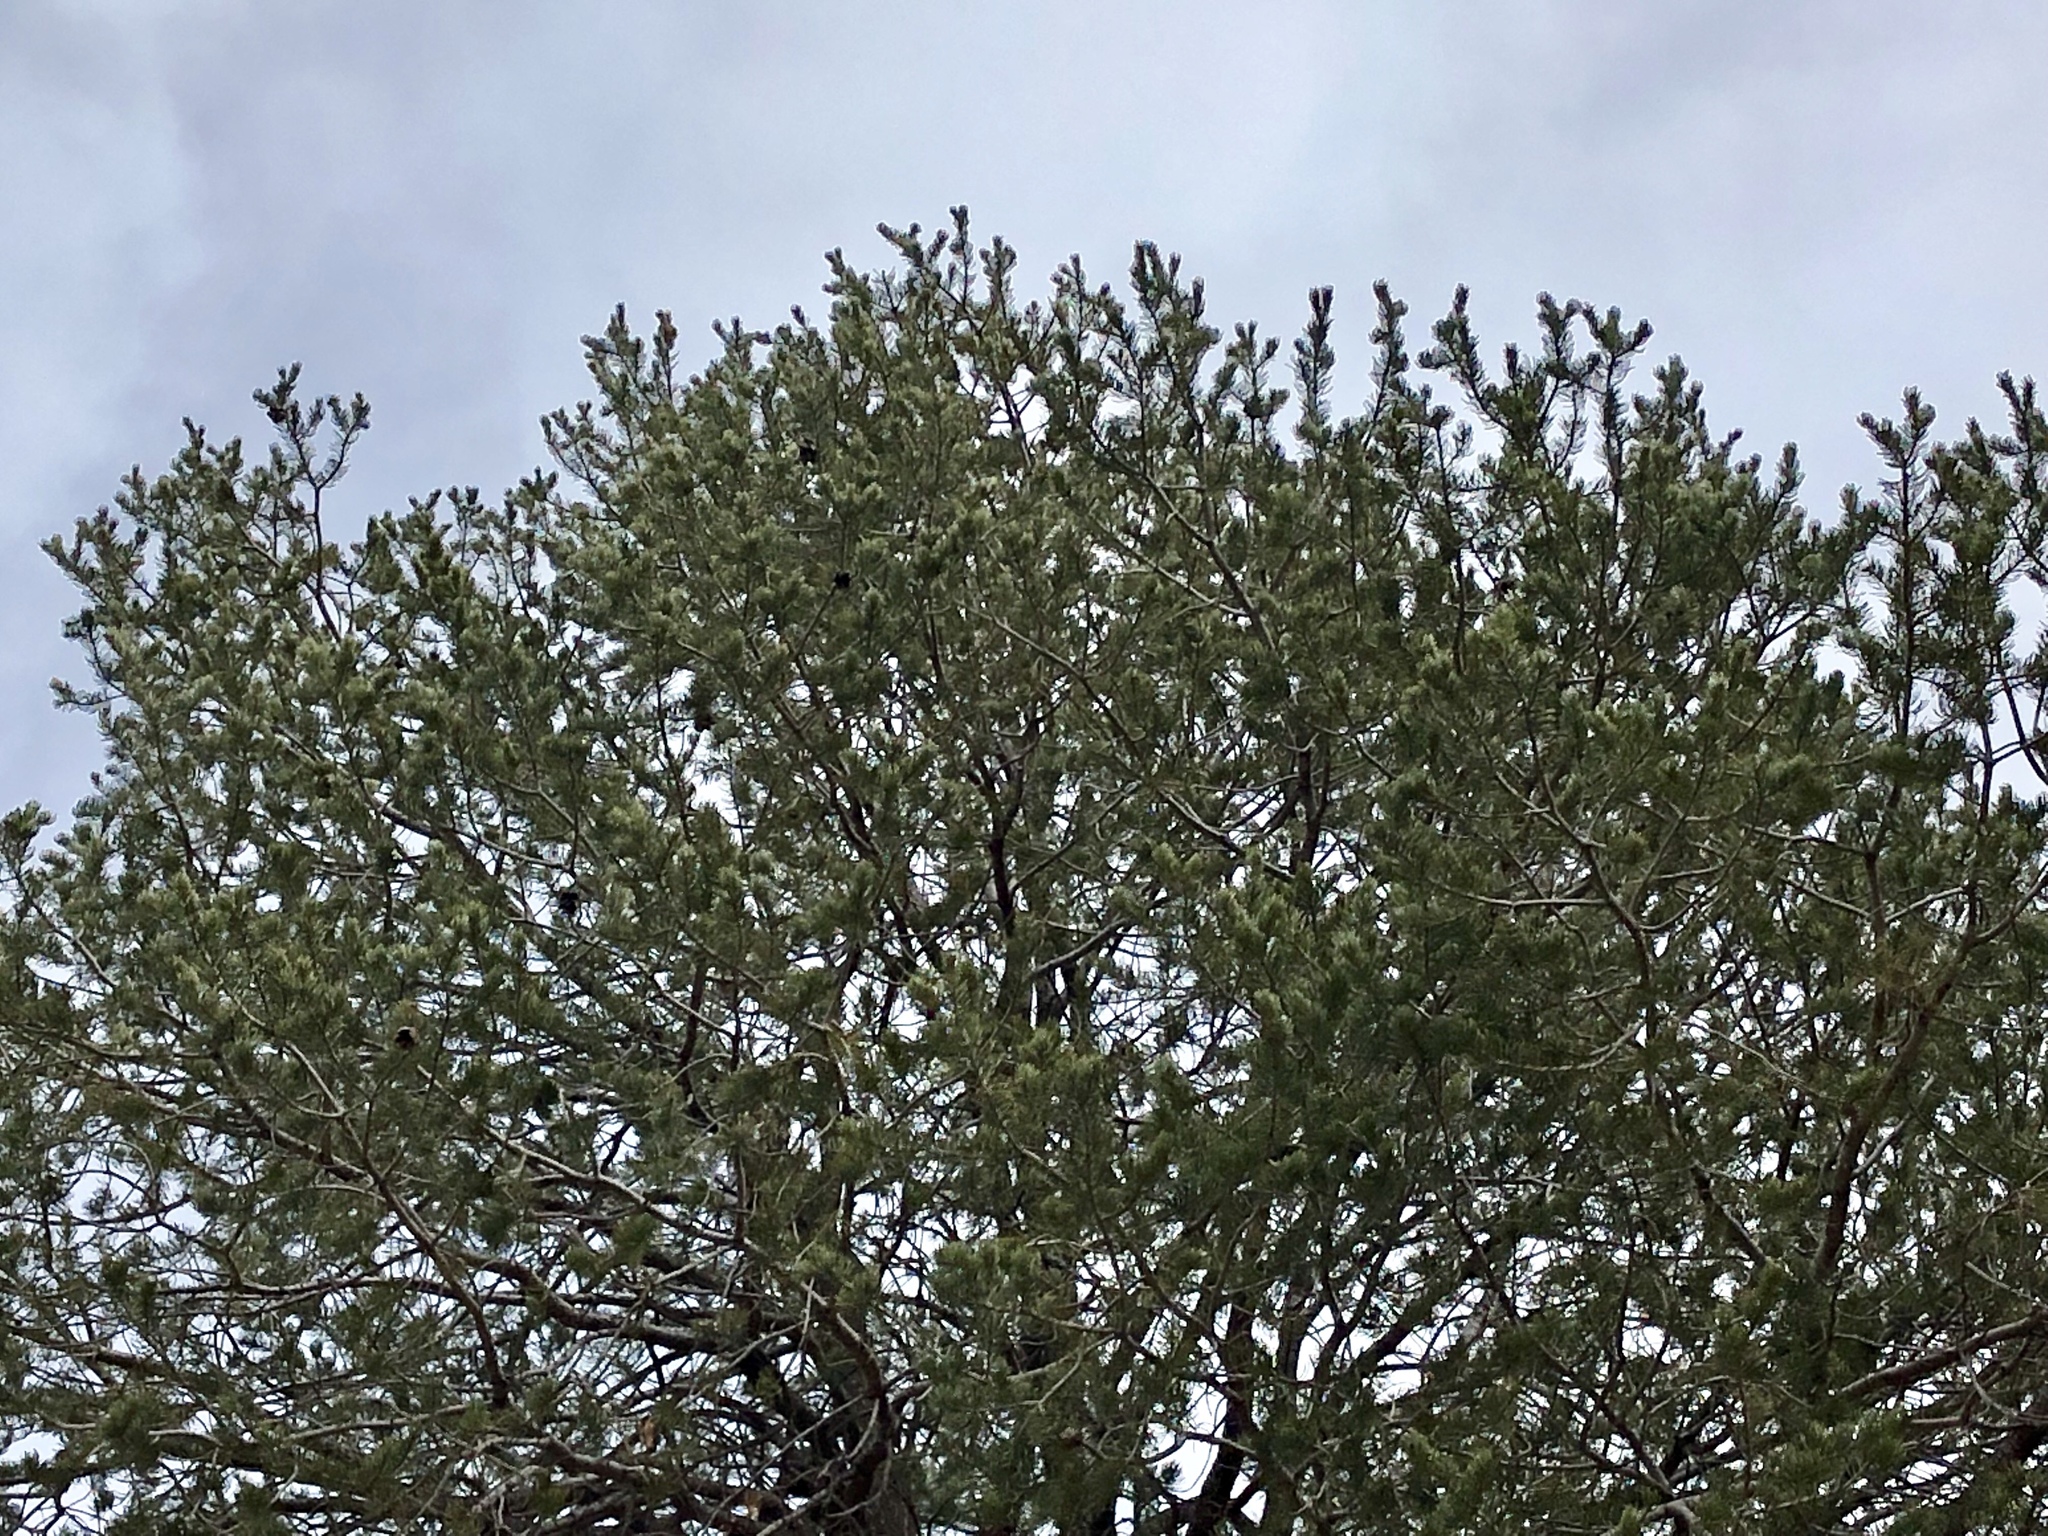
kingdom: Plantae
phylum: Tracheophyta
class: Pinopsida
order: Pinales
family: Pinaceae
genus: Pinus
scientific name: Pinus edulis
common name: Colorado pinyon
